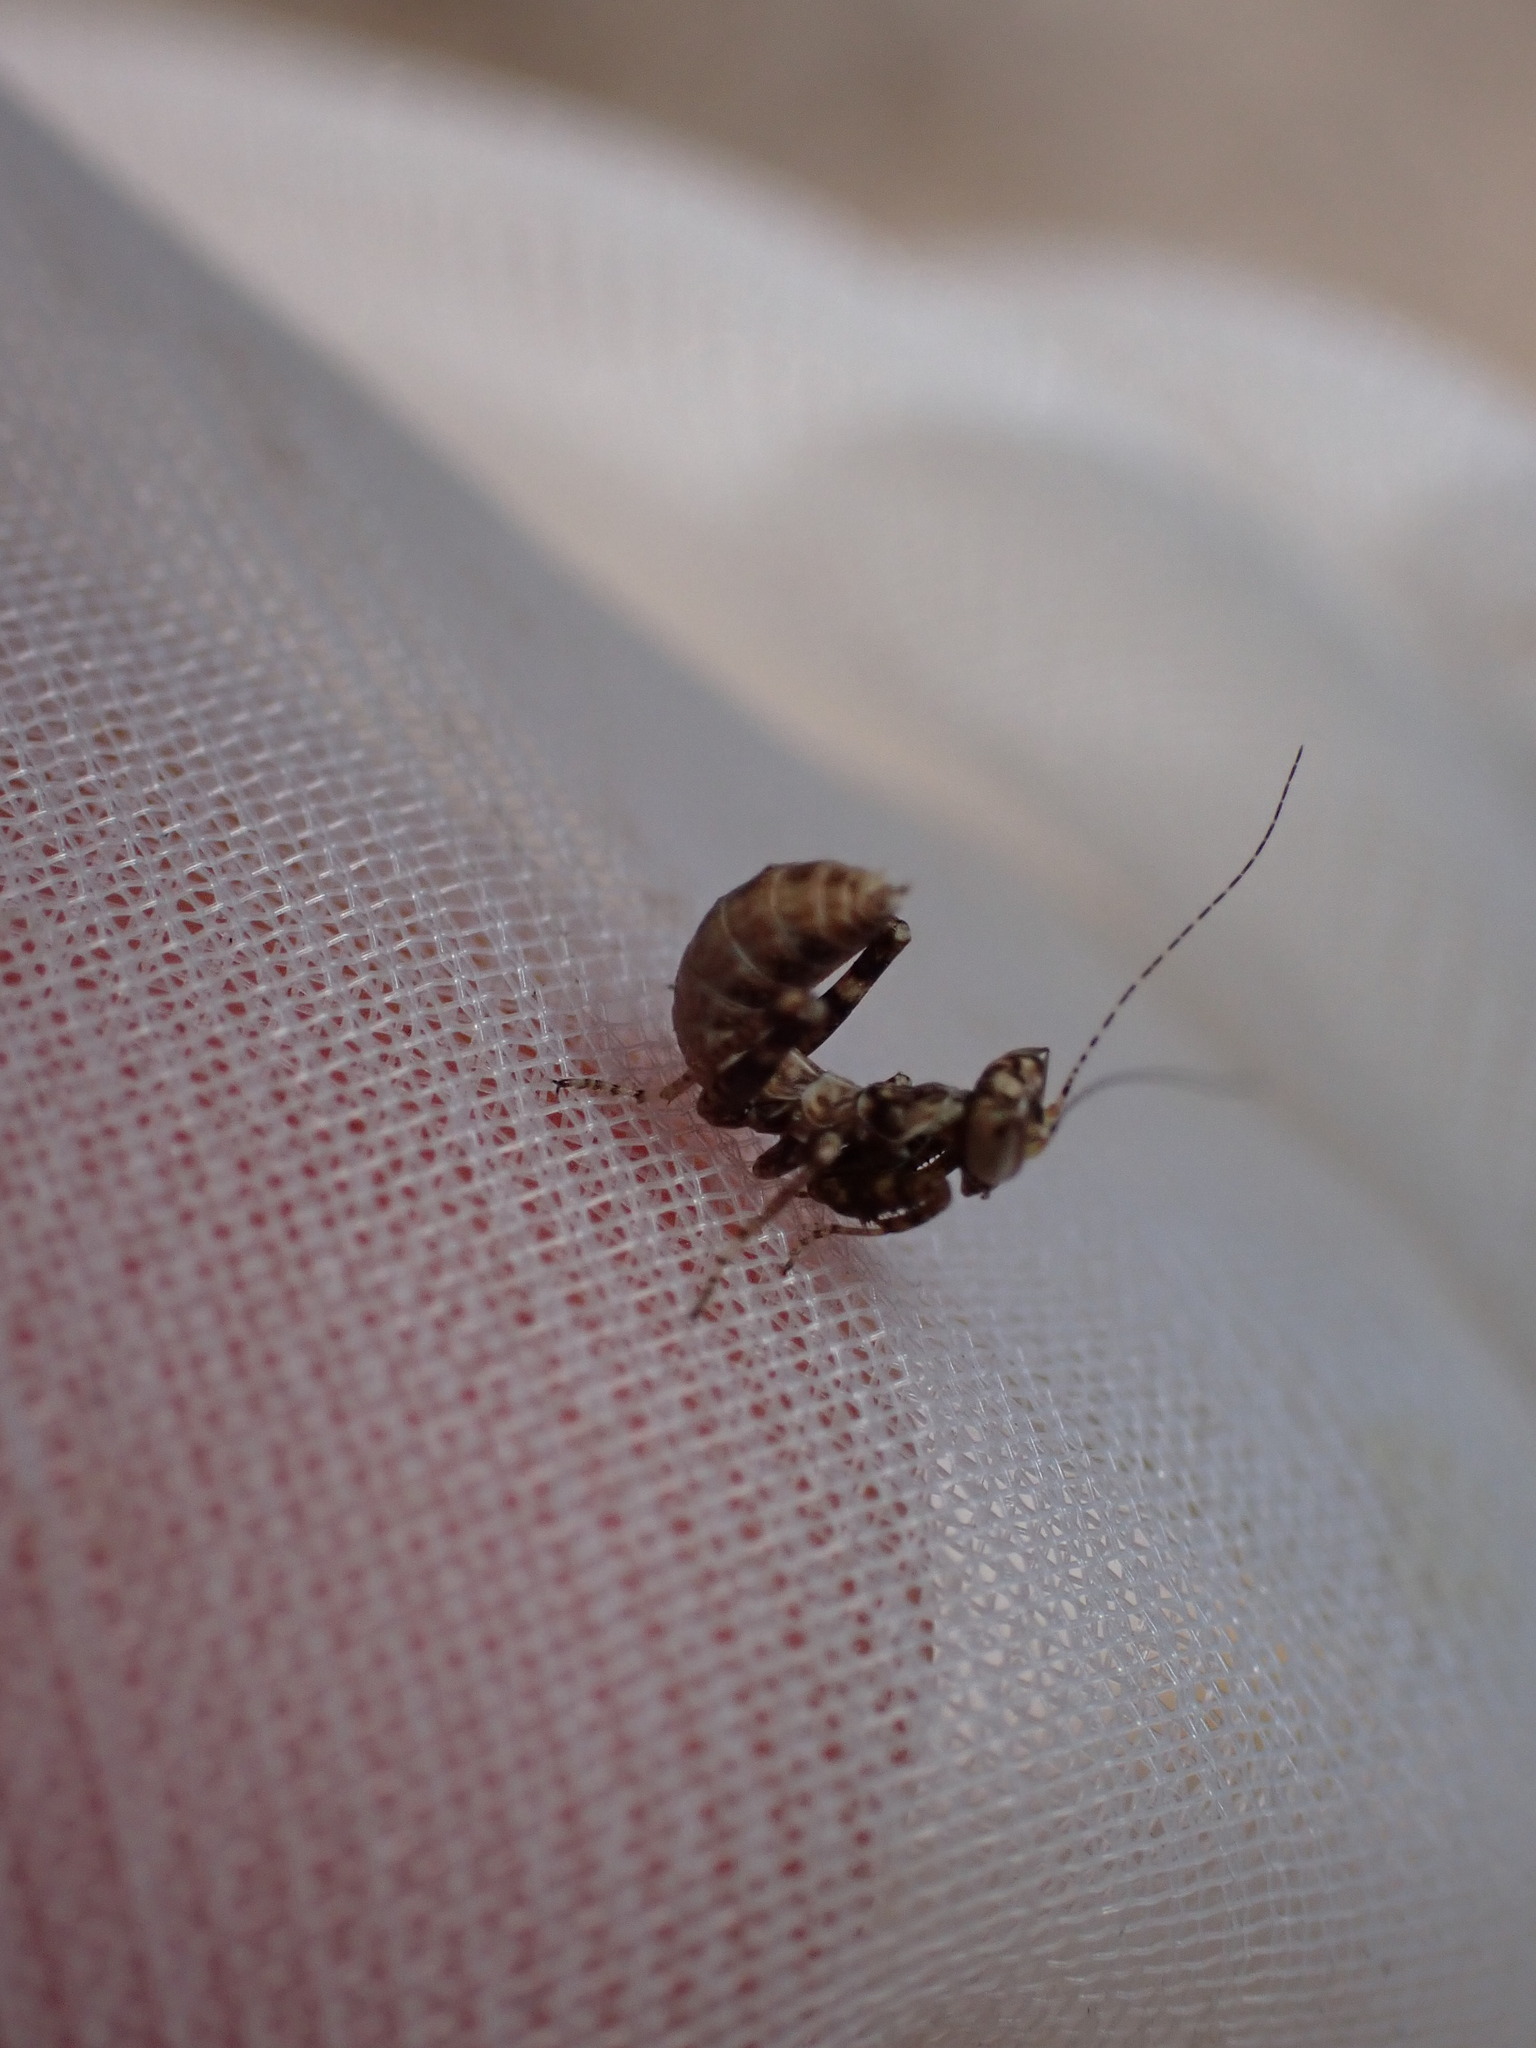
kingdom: Animalia
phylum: Arthropoda
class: Insecta
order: Mantodea
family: Amelidae
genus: Ameles
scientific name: Ameles spallanzania
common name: European dwarf mantis
